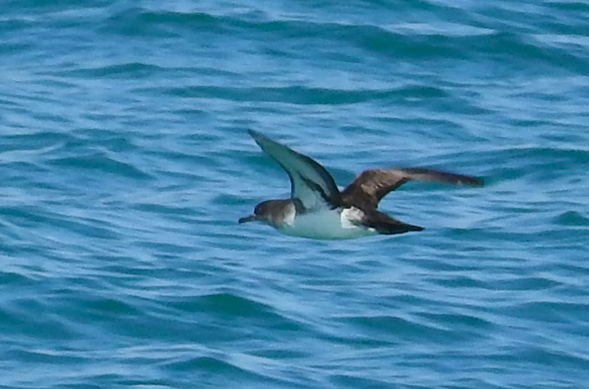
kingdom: Animalia
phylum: Chordata
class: Aves
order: Procellariiformes
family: Procellariidae
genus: Puffinus
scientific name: Puffinus opisthomelas
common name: Black-vented shearwater
